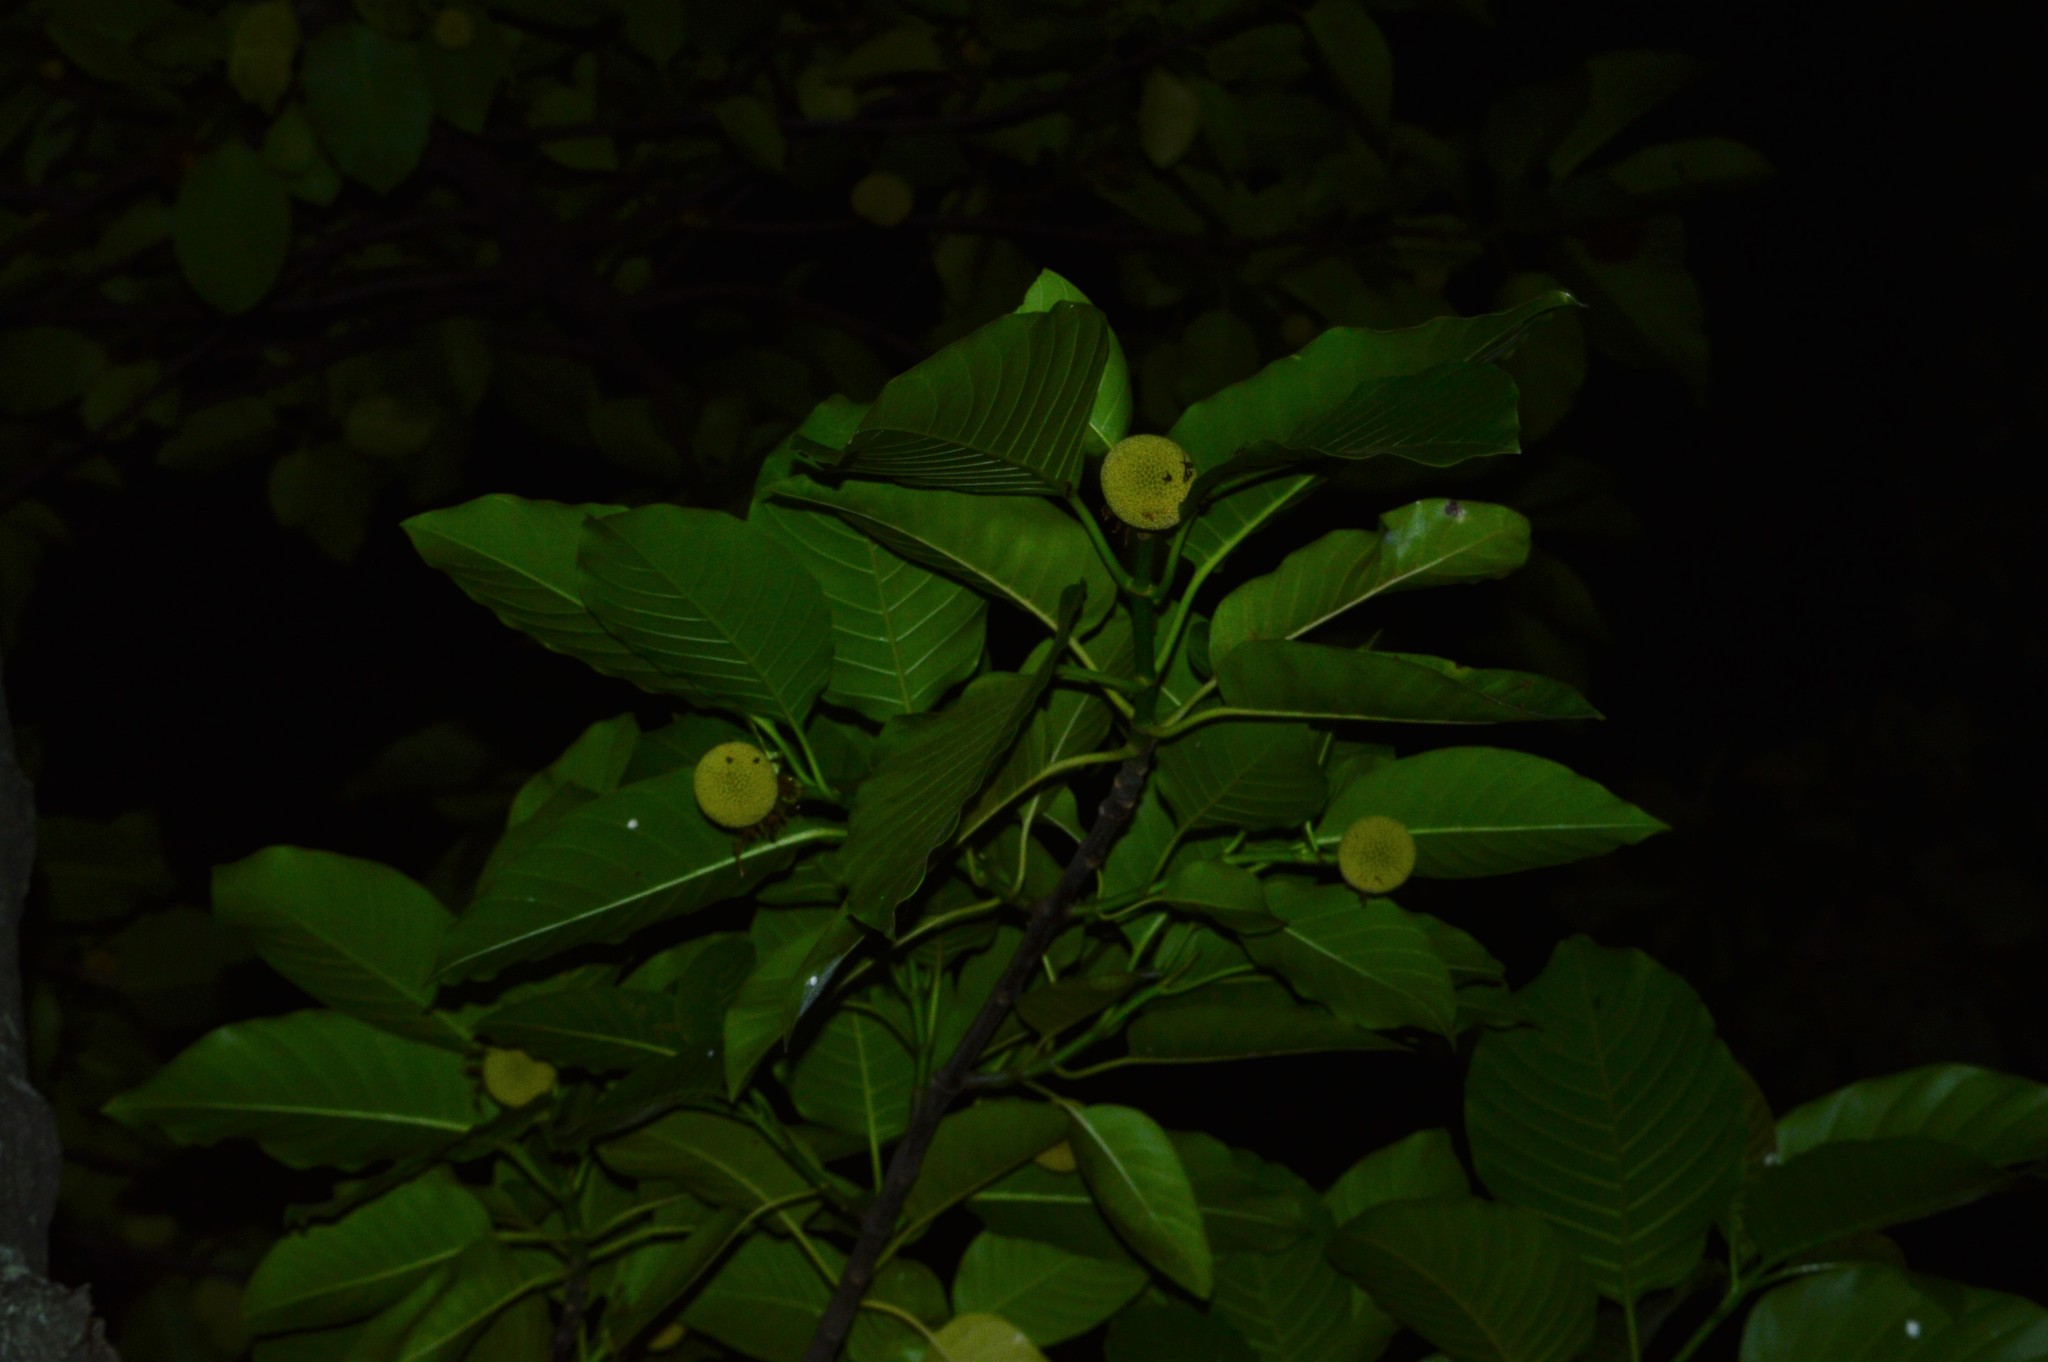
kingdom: Plantae
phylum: Tracheophyta
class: Magnoliopsida
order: Gentianales
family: Rubiaceae
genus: Neolamarckia
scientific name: Neolamarckia cadamba
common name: Leichhardt-pine
